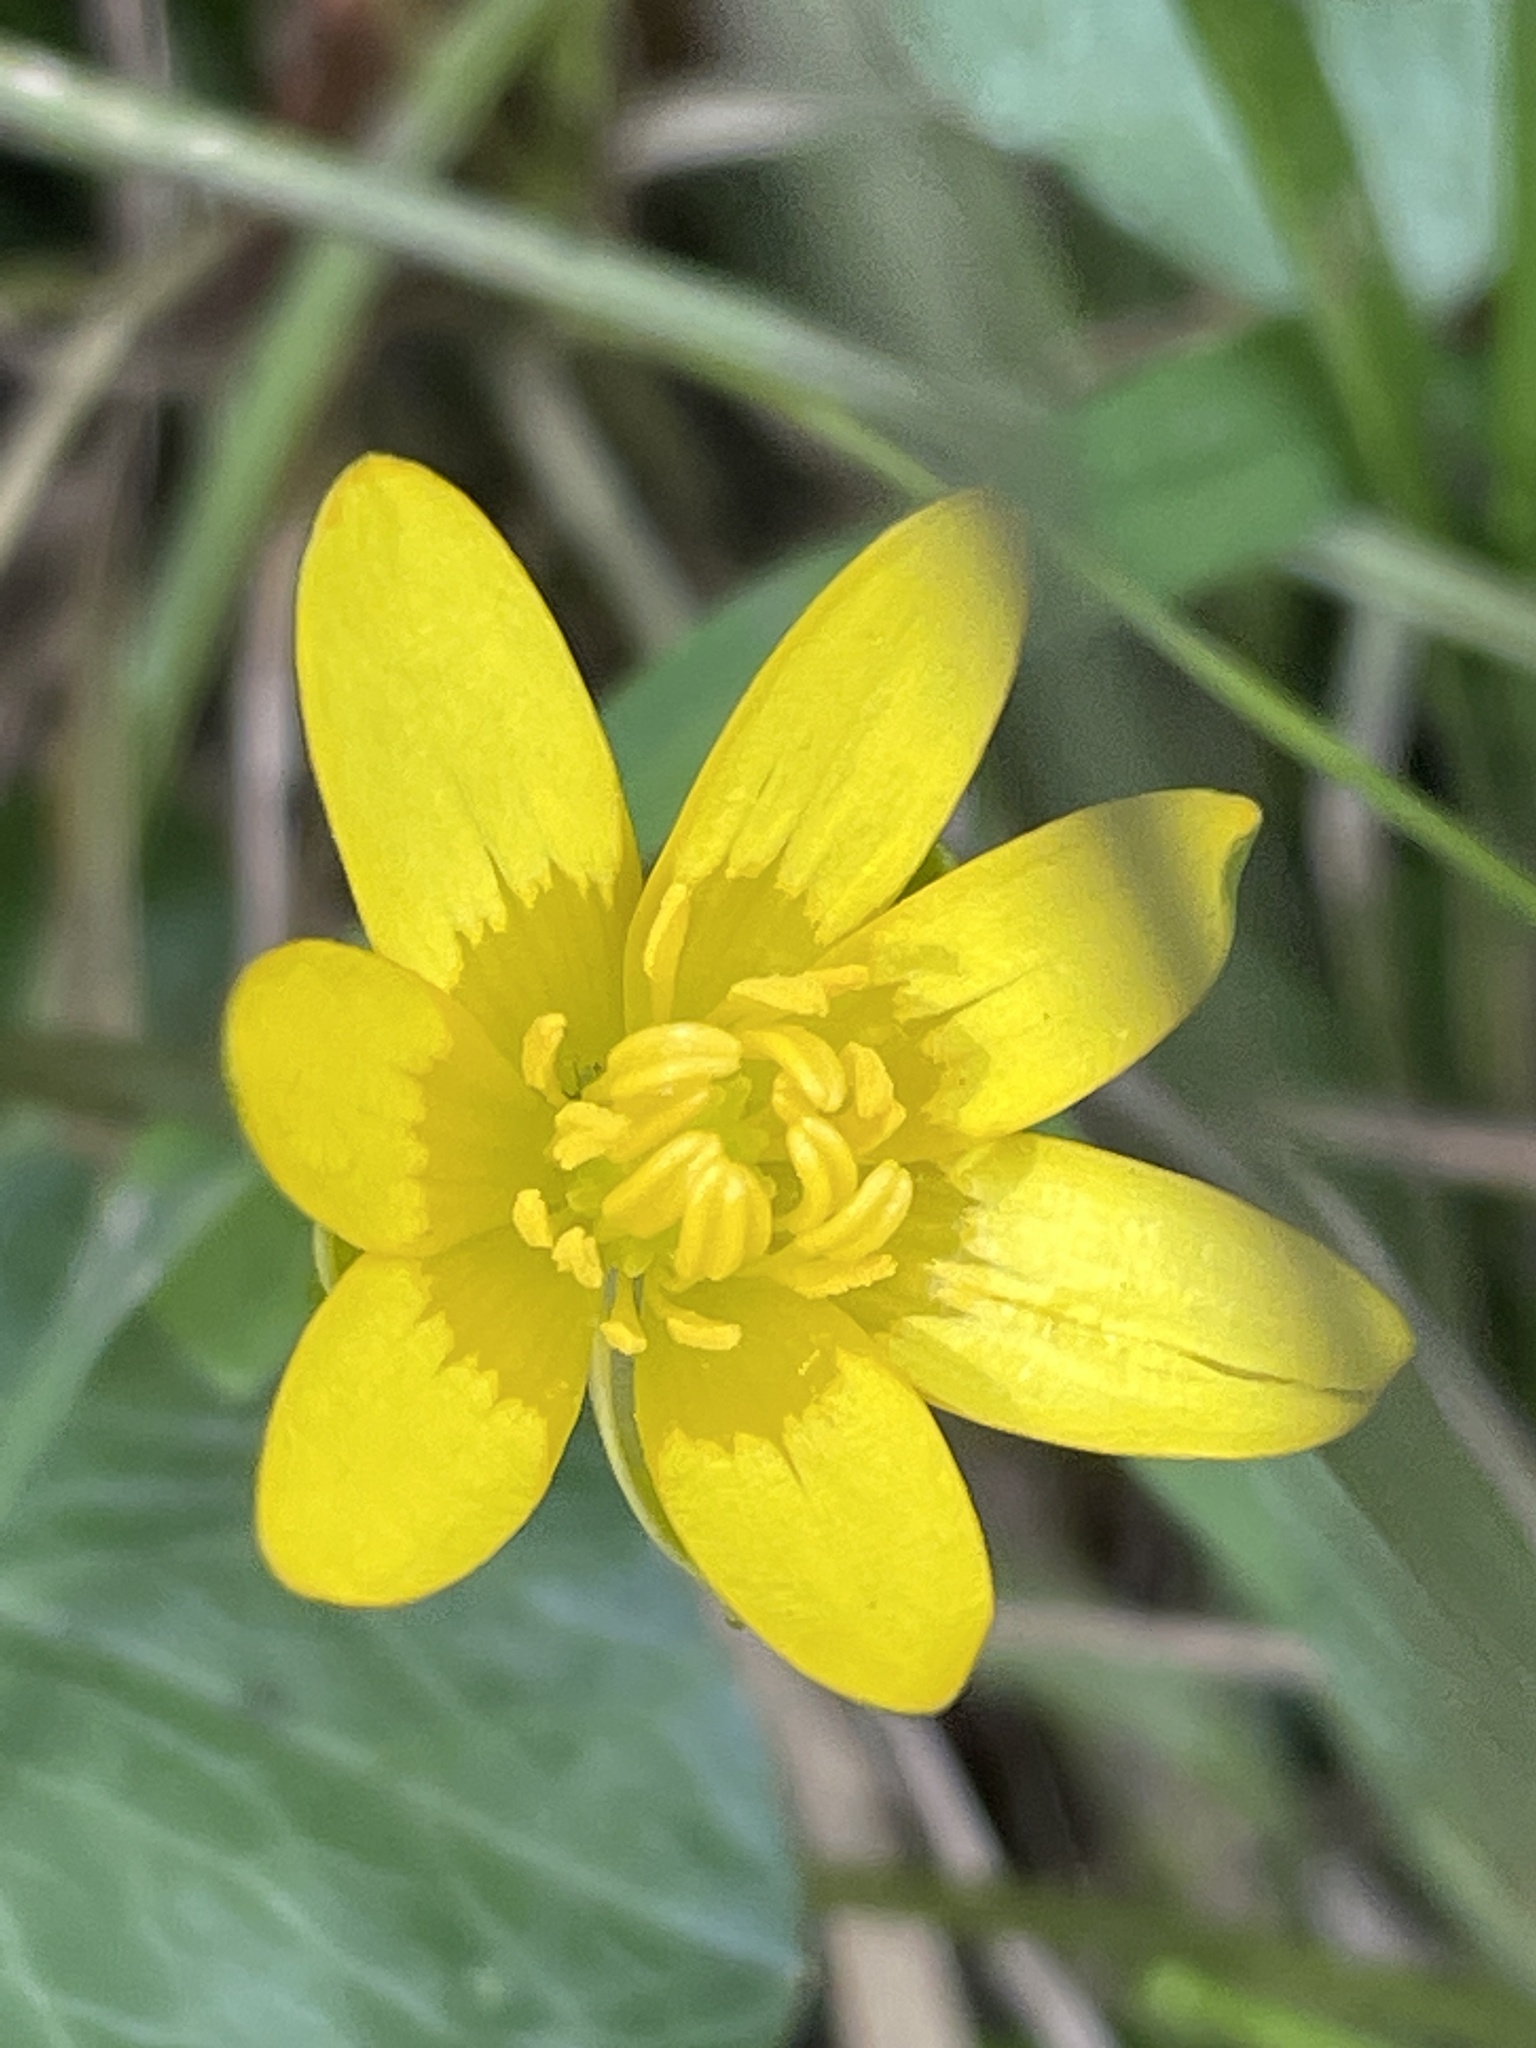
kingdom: Plantae
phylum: Tracheophyta
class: Magnoliopsida
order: Ranunculales
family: Ranunculaceae
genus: Ficaria
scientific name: Ficaria verna
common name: Lesser celandine
